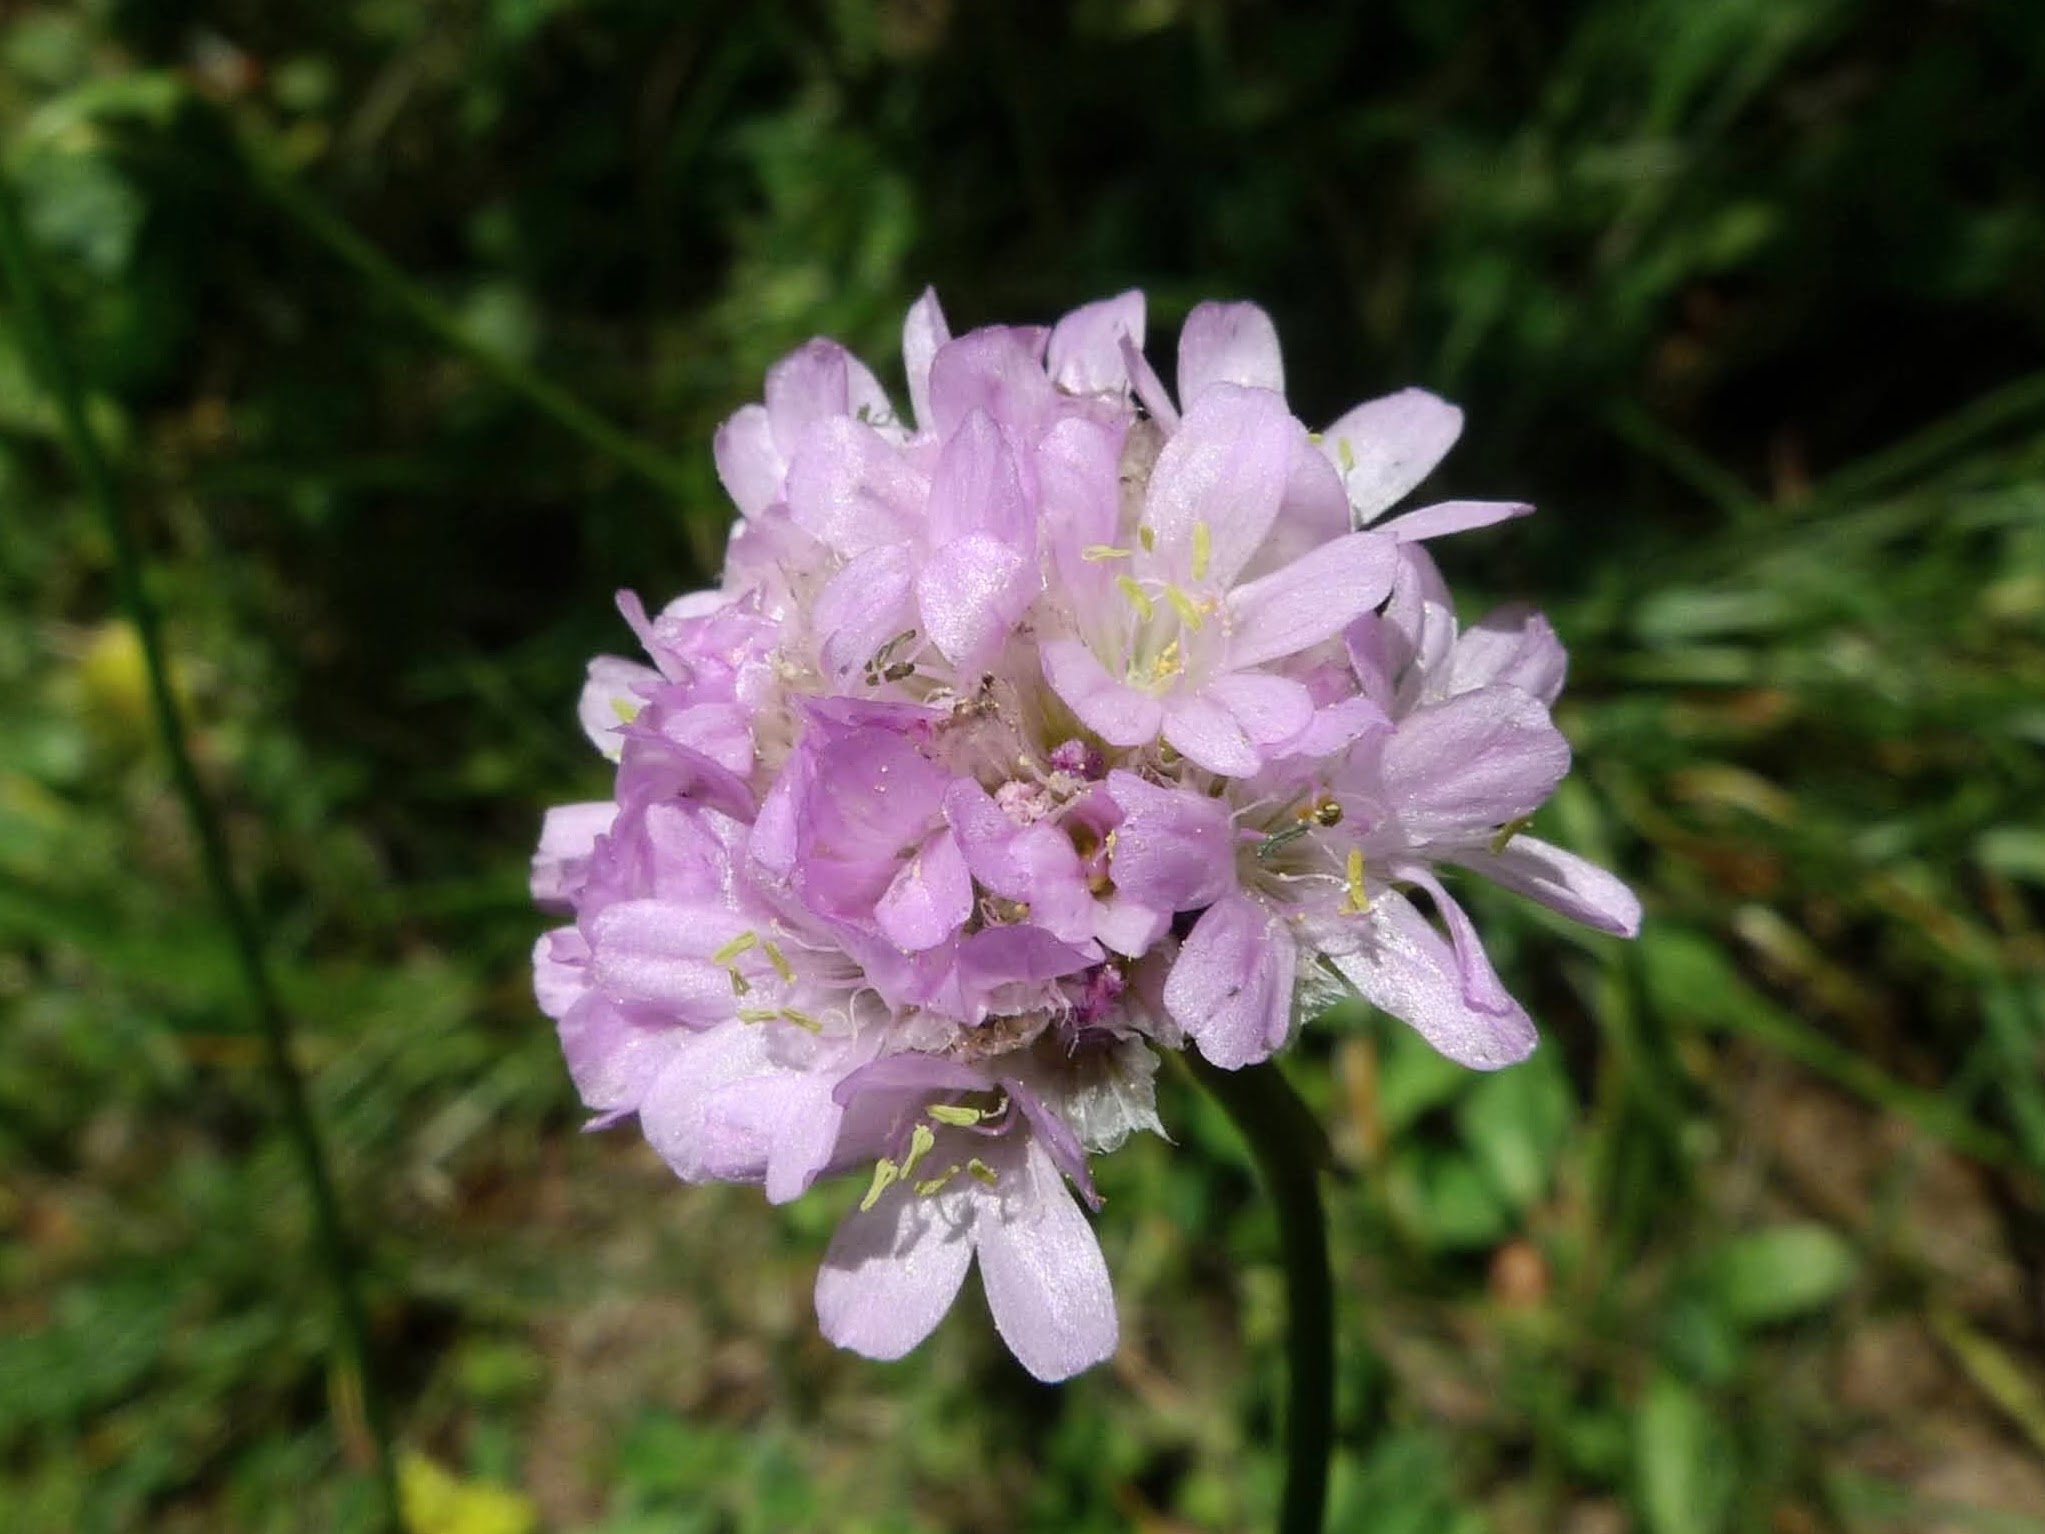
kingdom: Plantae
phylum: Tracheophyta
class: Magnoliopsida
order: Caryophyllales
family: Plumbaginaceae
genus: Armeria
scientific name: Armeria maritima
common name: Thrift
